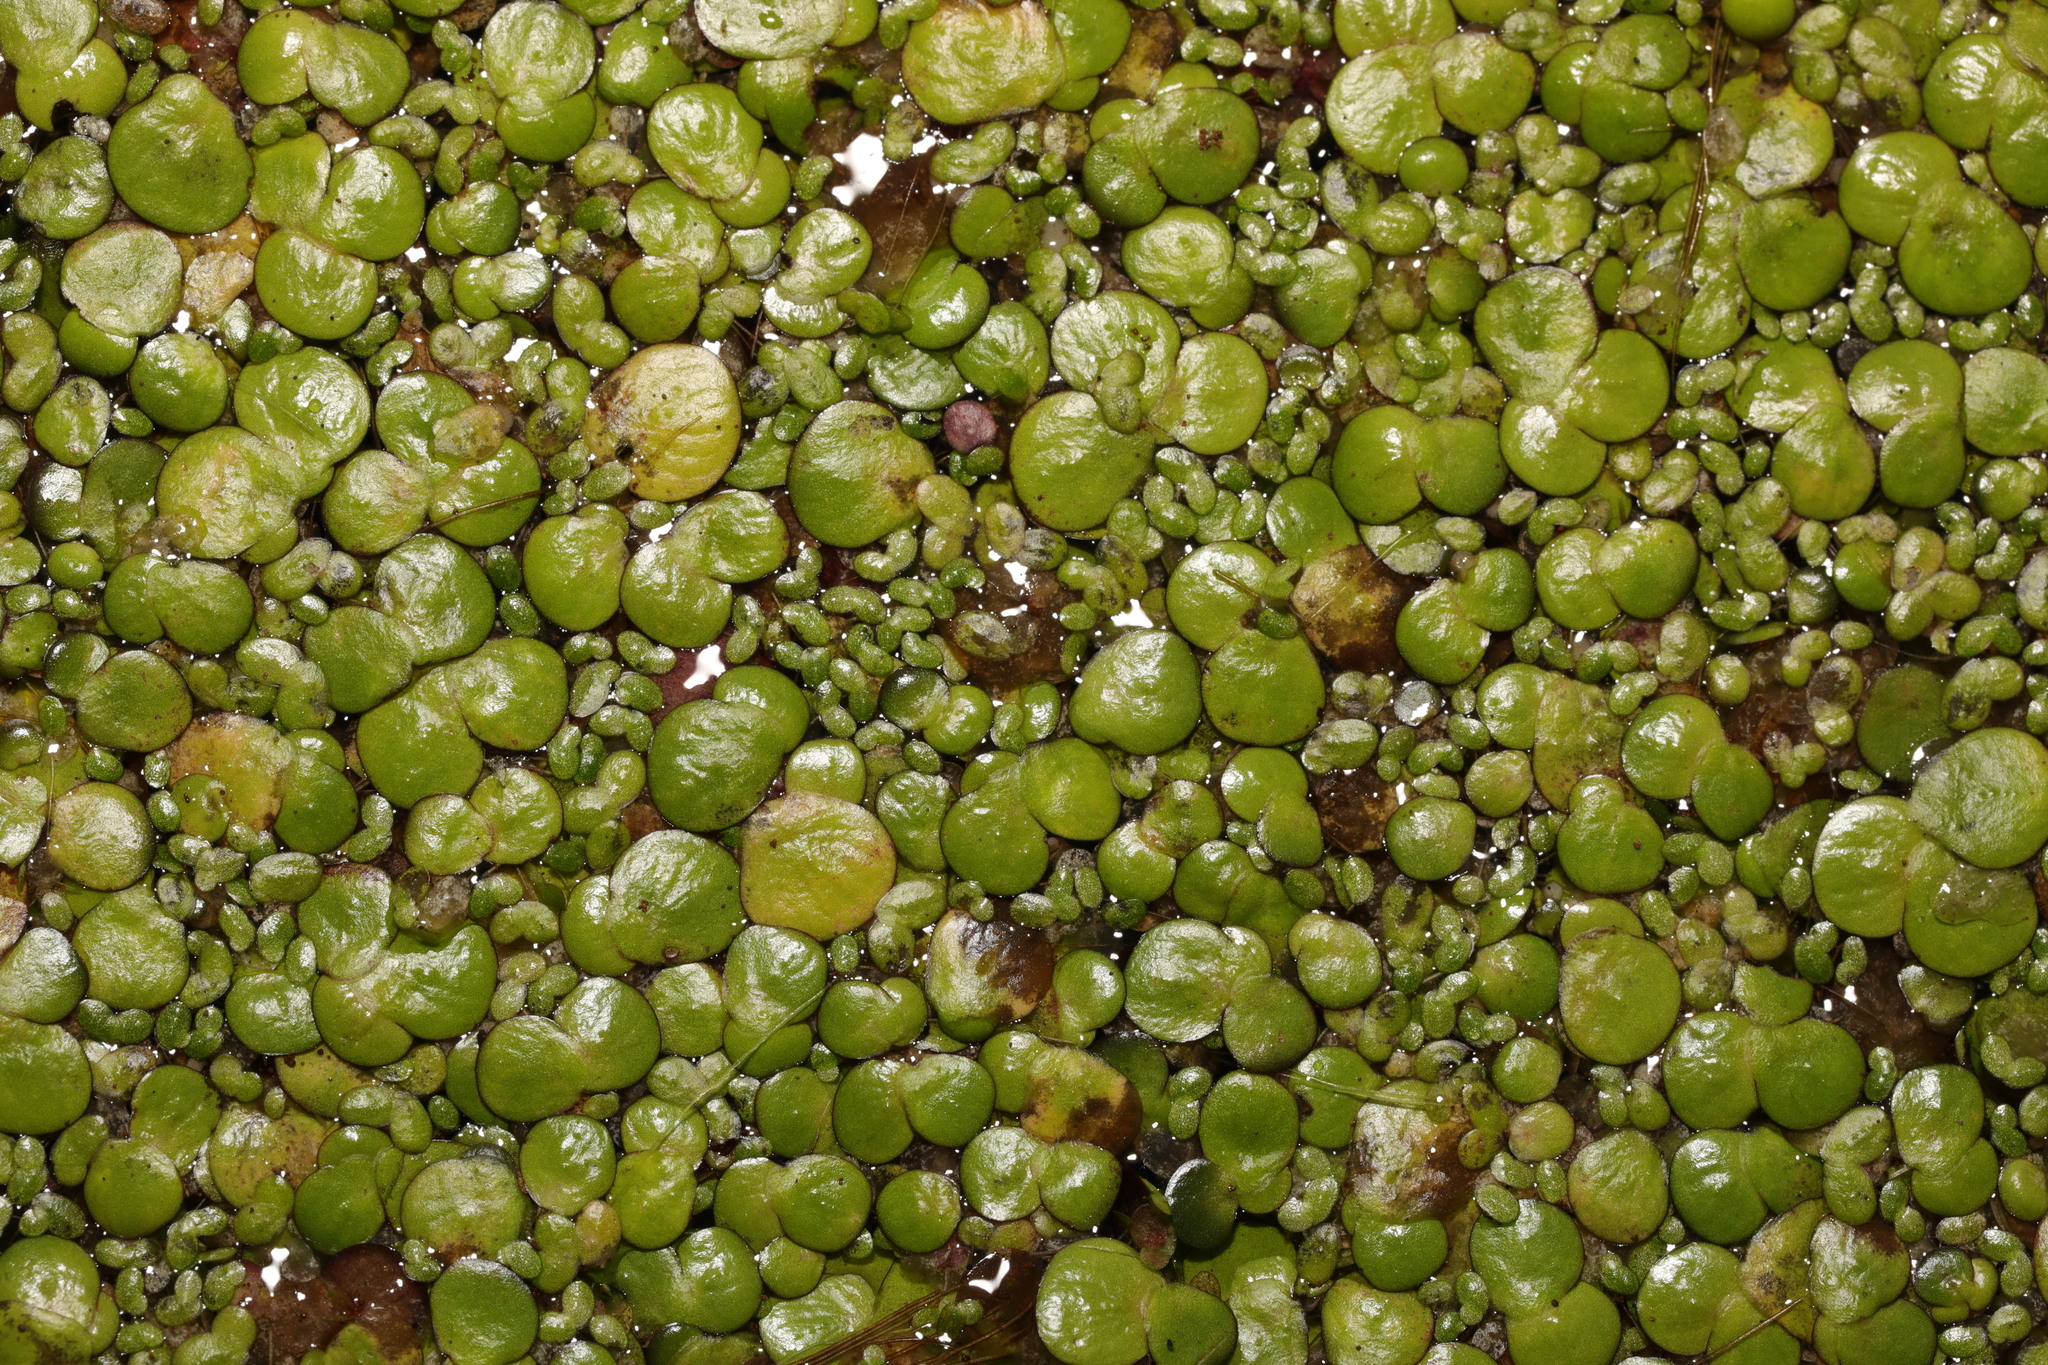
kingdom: Plantae
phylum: Tracheophyta
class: Liliopsida
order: Alismatales
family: Araceae
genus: Spirodela
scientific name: Spirodela polyrhiza
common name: Great duckweed
